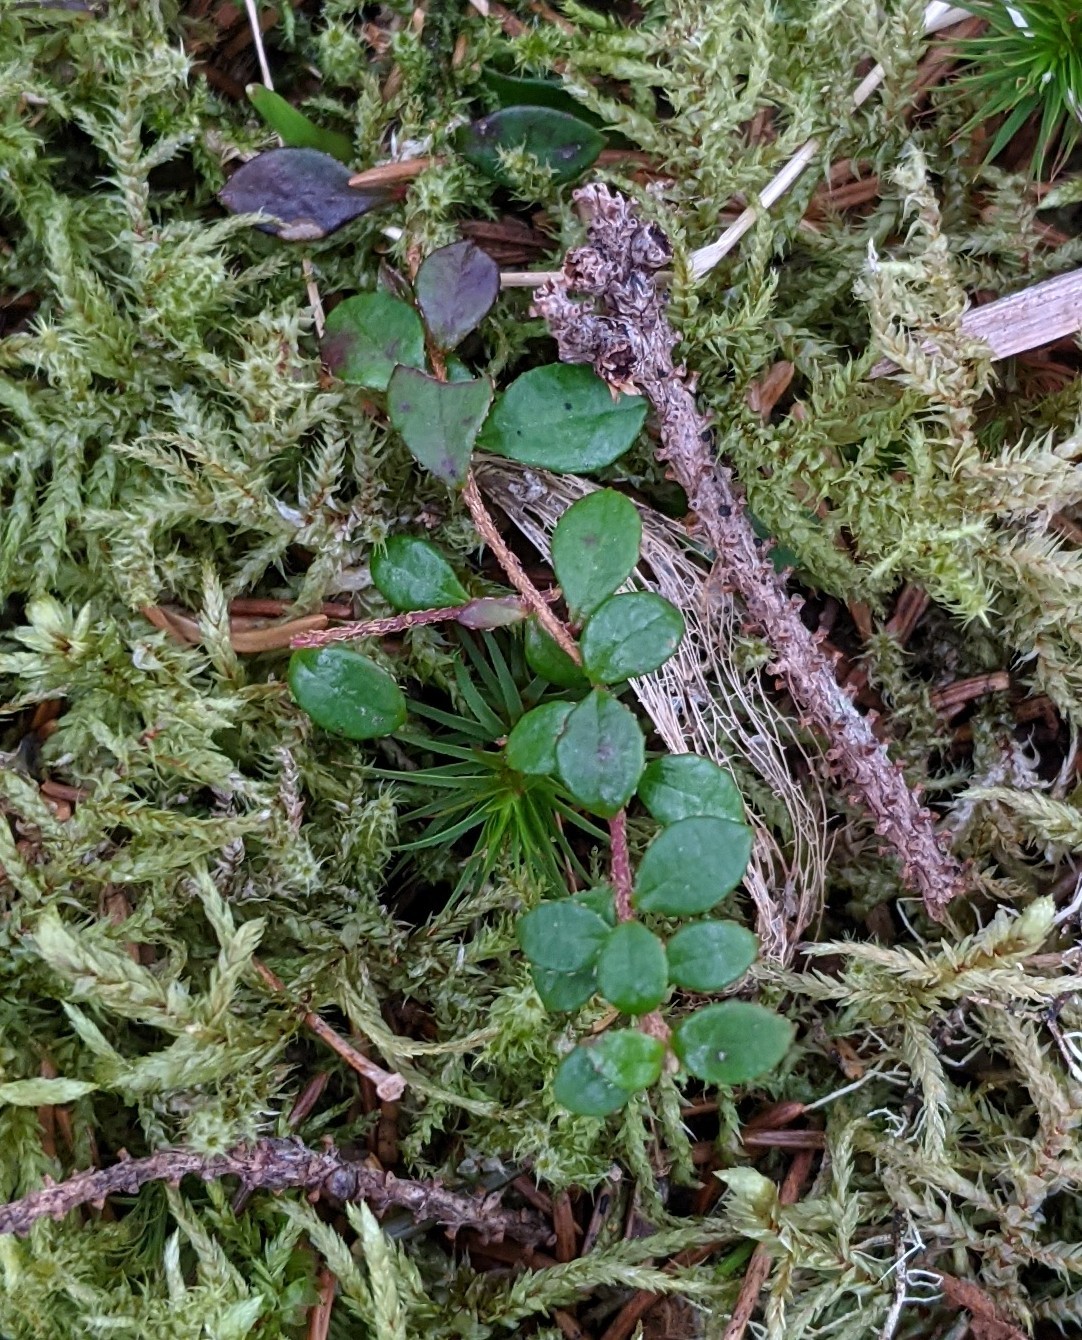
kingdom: Plantae
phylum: Tracheophyta
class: Magnoliopsida
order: Ericales
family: Ericaceae
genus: Gaultheria
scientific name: Gaultheria hispidula
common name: Cancer wintergreen
